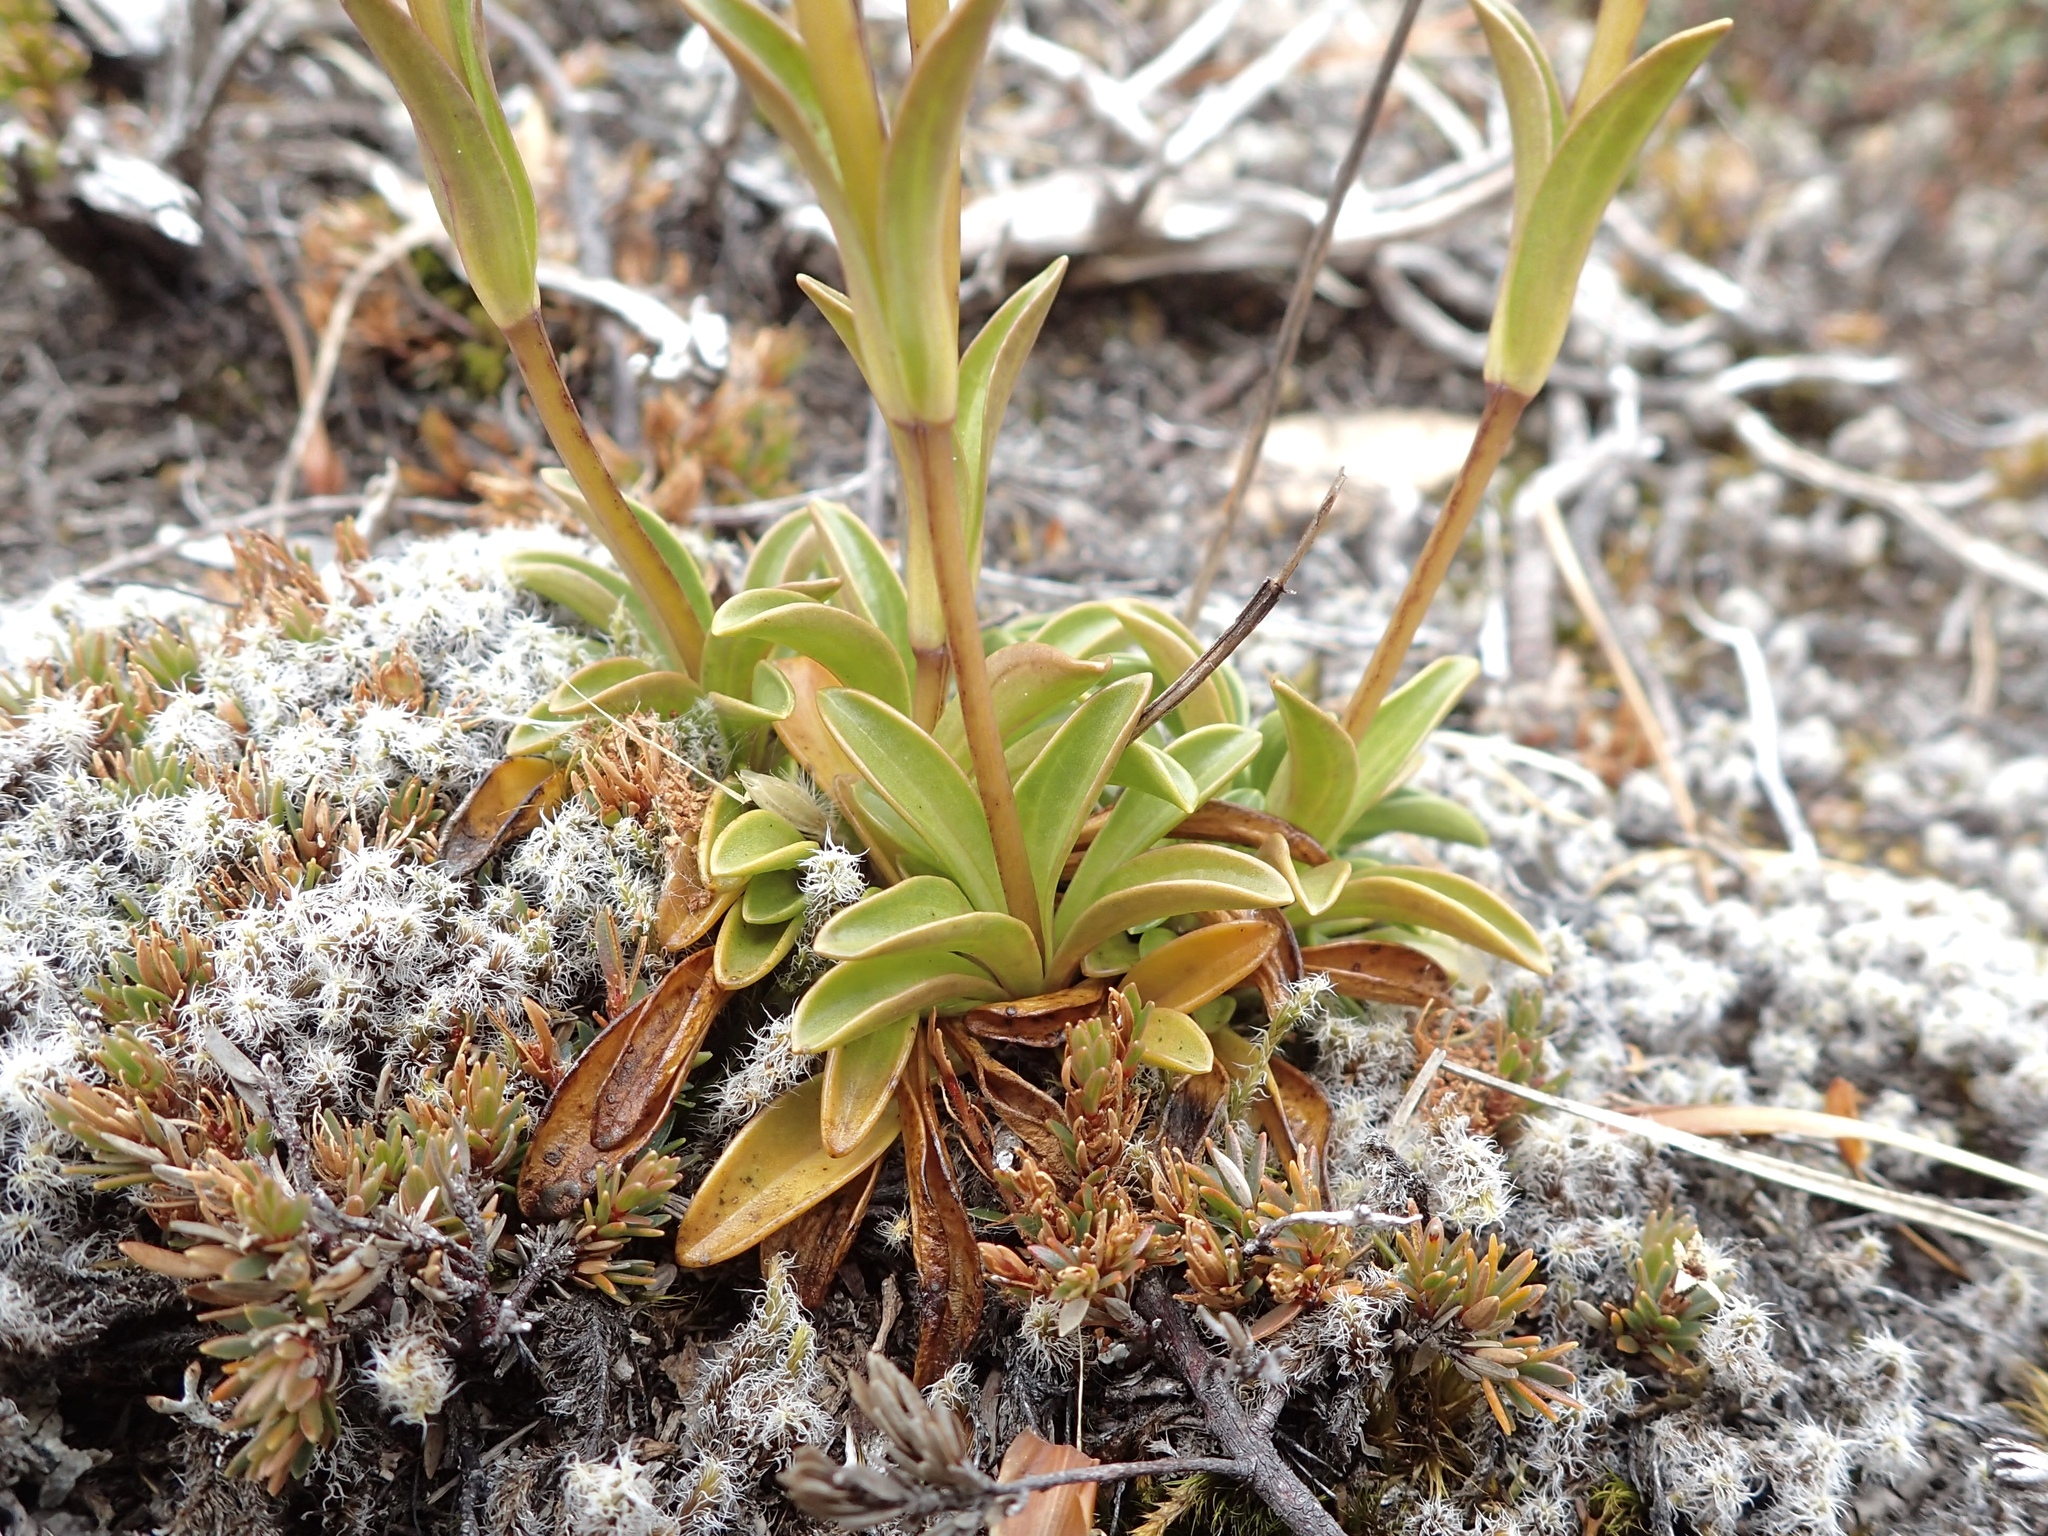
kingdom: Plantae
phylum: Tracheophyta
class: Magnoliopsida
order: Gentianales
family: Gentianaceae
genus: Gentianella
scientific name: Gentianella montana
